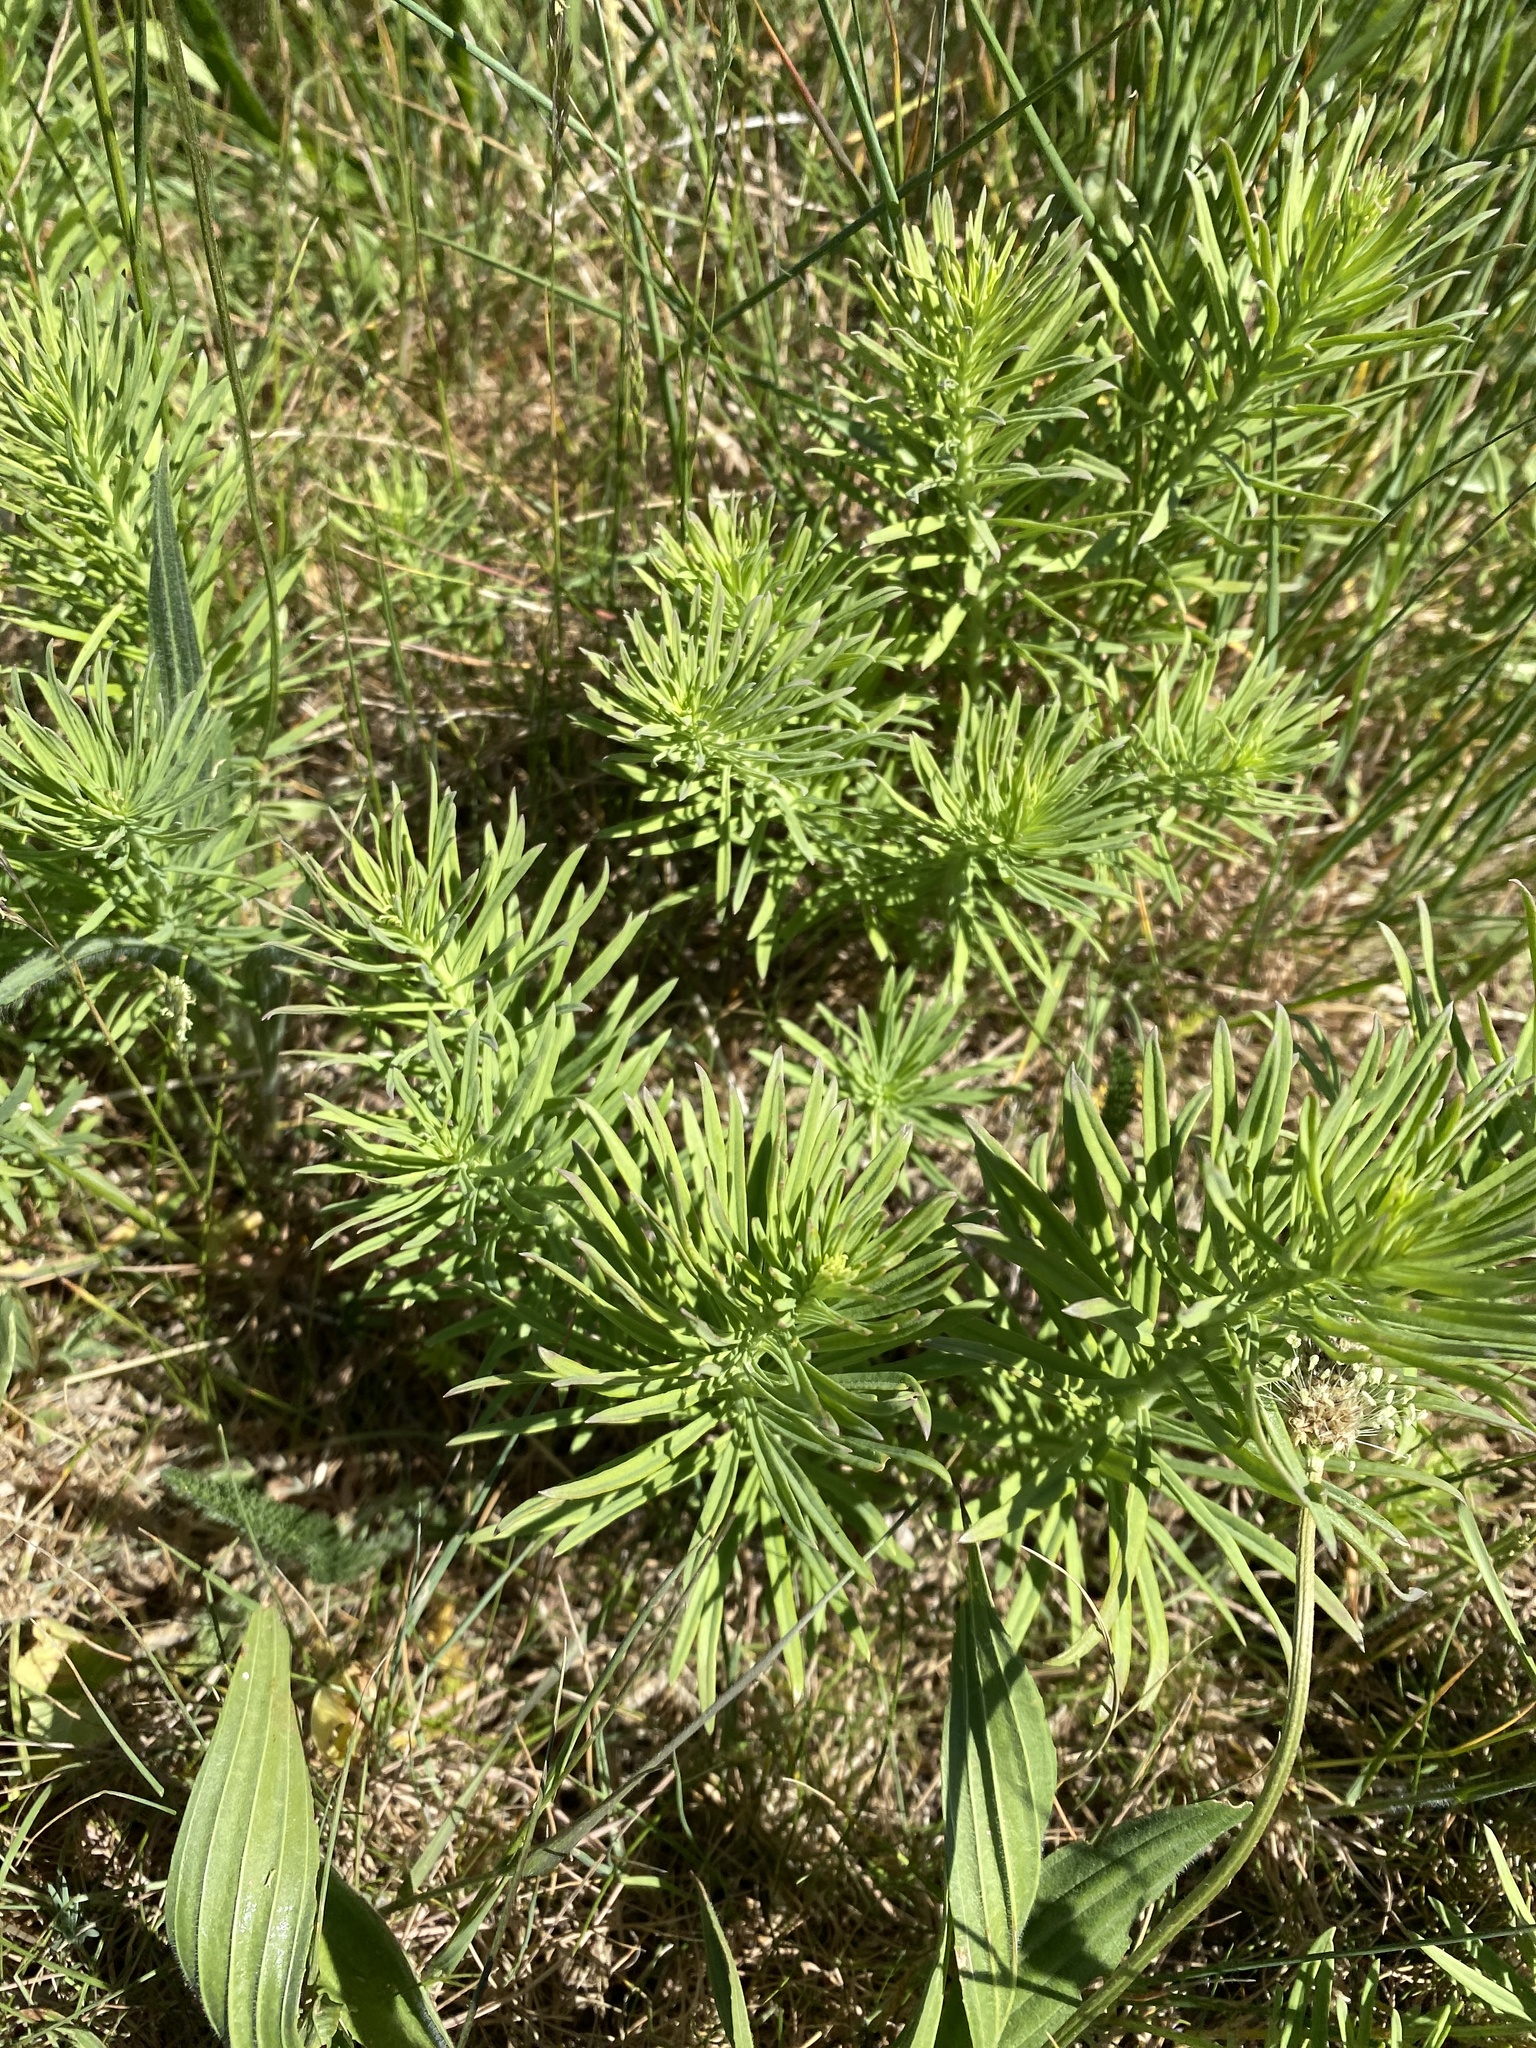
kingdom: Plantae
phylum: Tracheophyta
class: Magnoliopsida
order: Lamiales
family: Plantaginaceae
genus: Linaria
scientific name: Linaria vulgaris
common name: Butter and eggs
